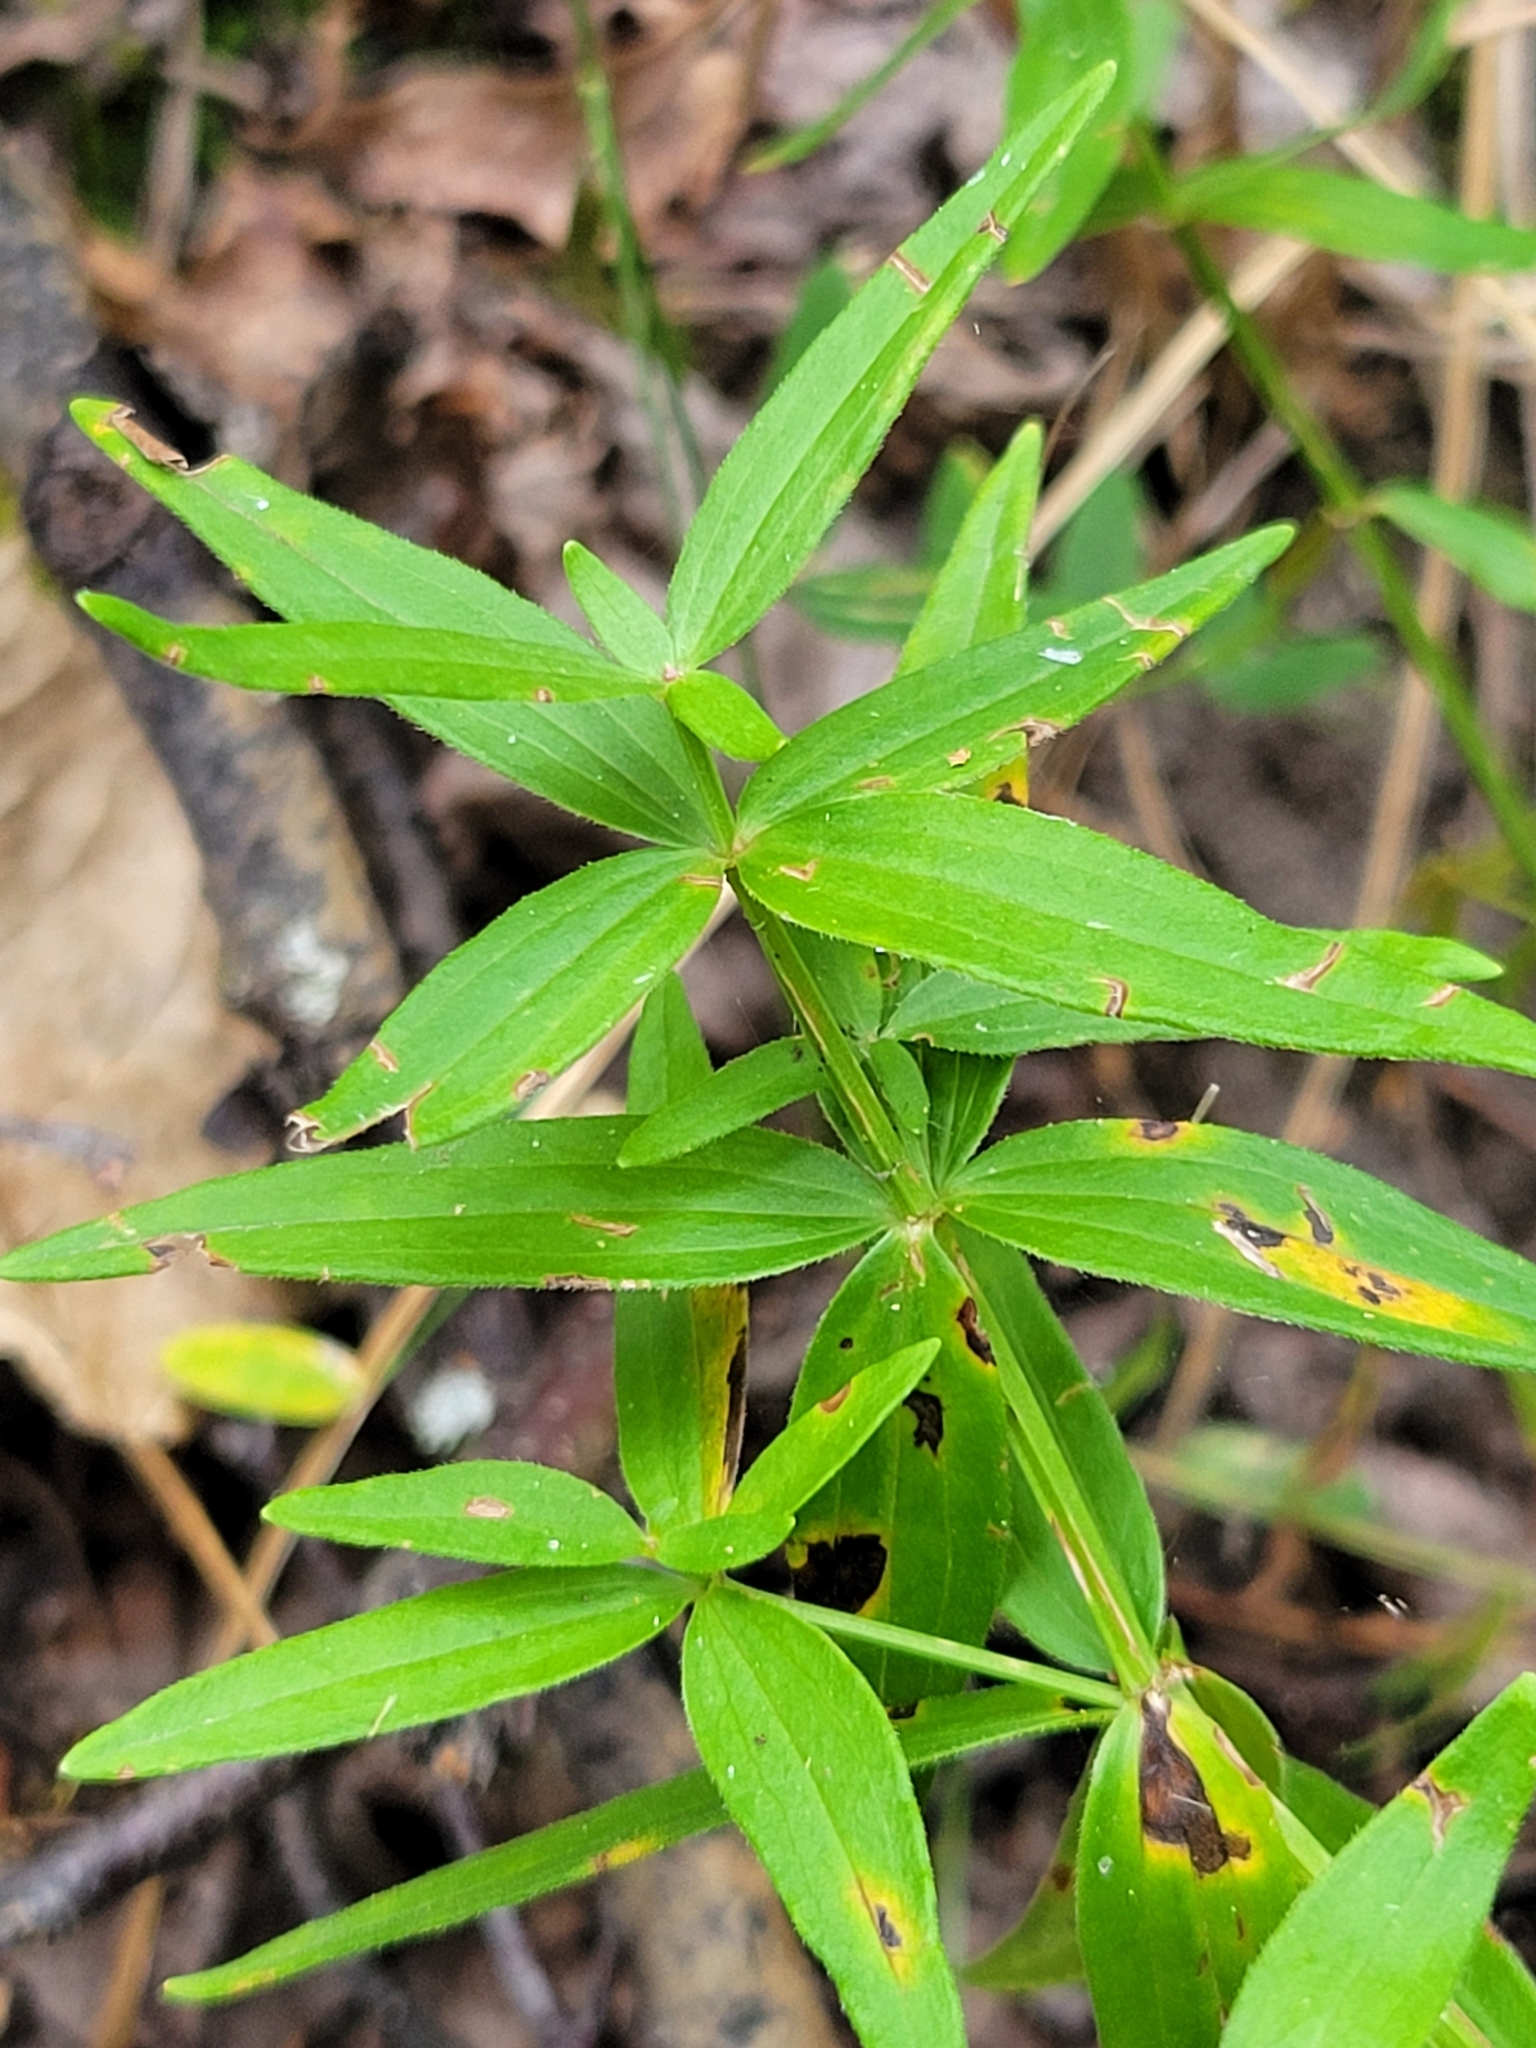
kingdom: Plantae
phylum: Tracheophyta
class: Magnoliopsida
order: Gentianales
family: Rubiaceae
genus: Galium
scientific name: Galium boreale
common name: Northern bedstraw
